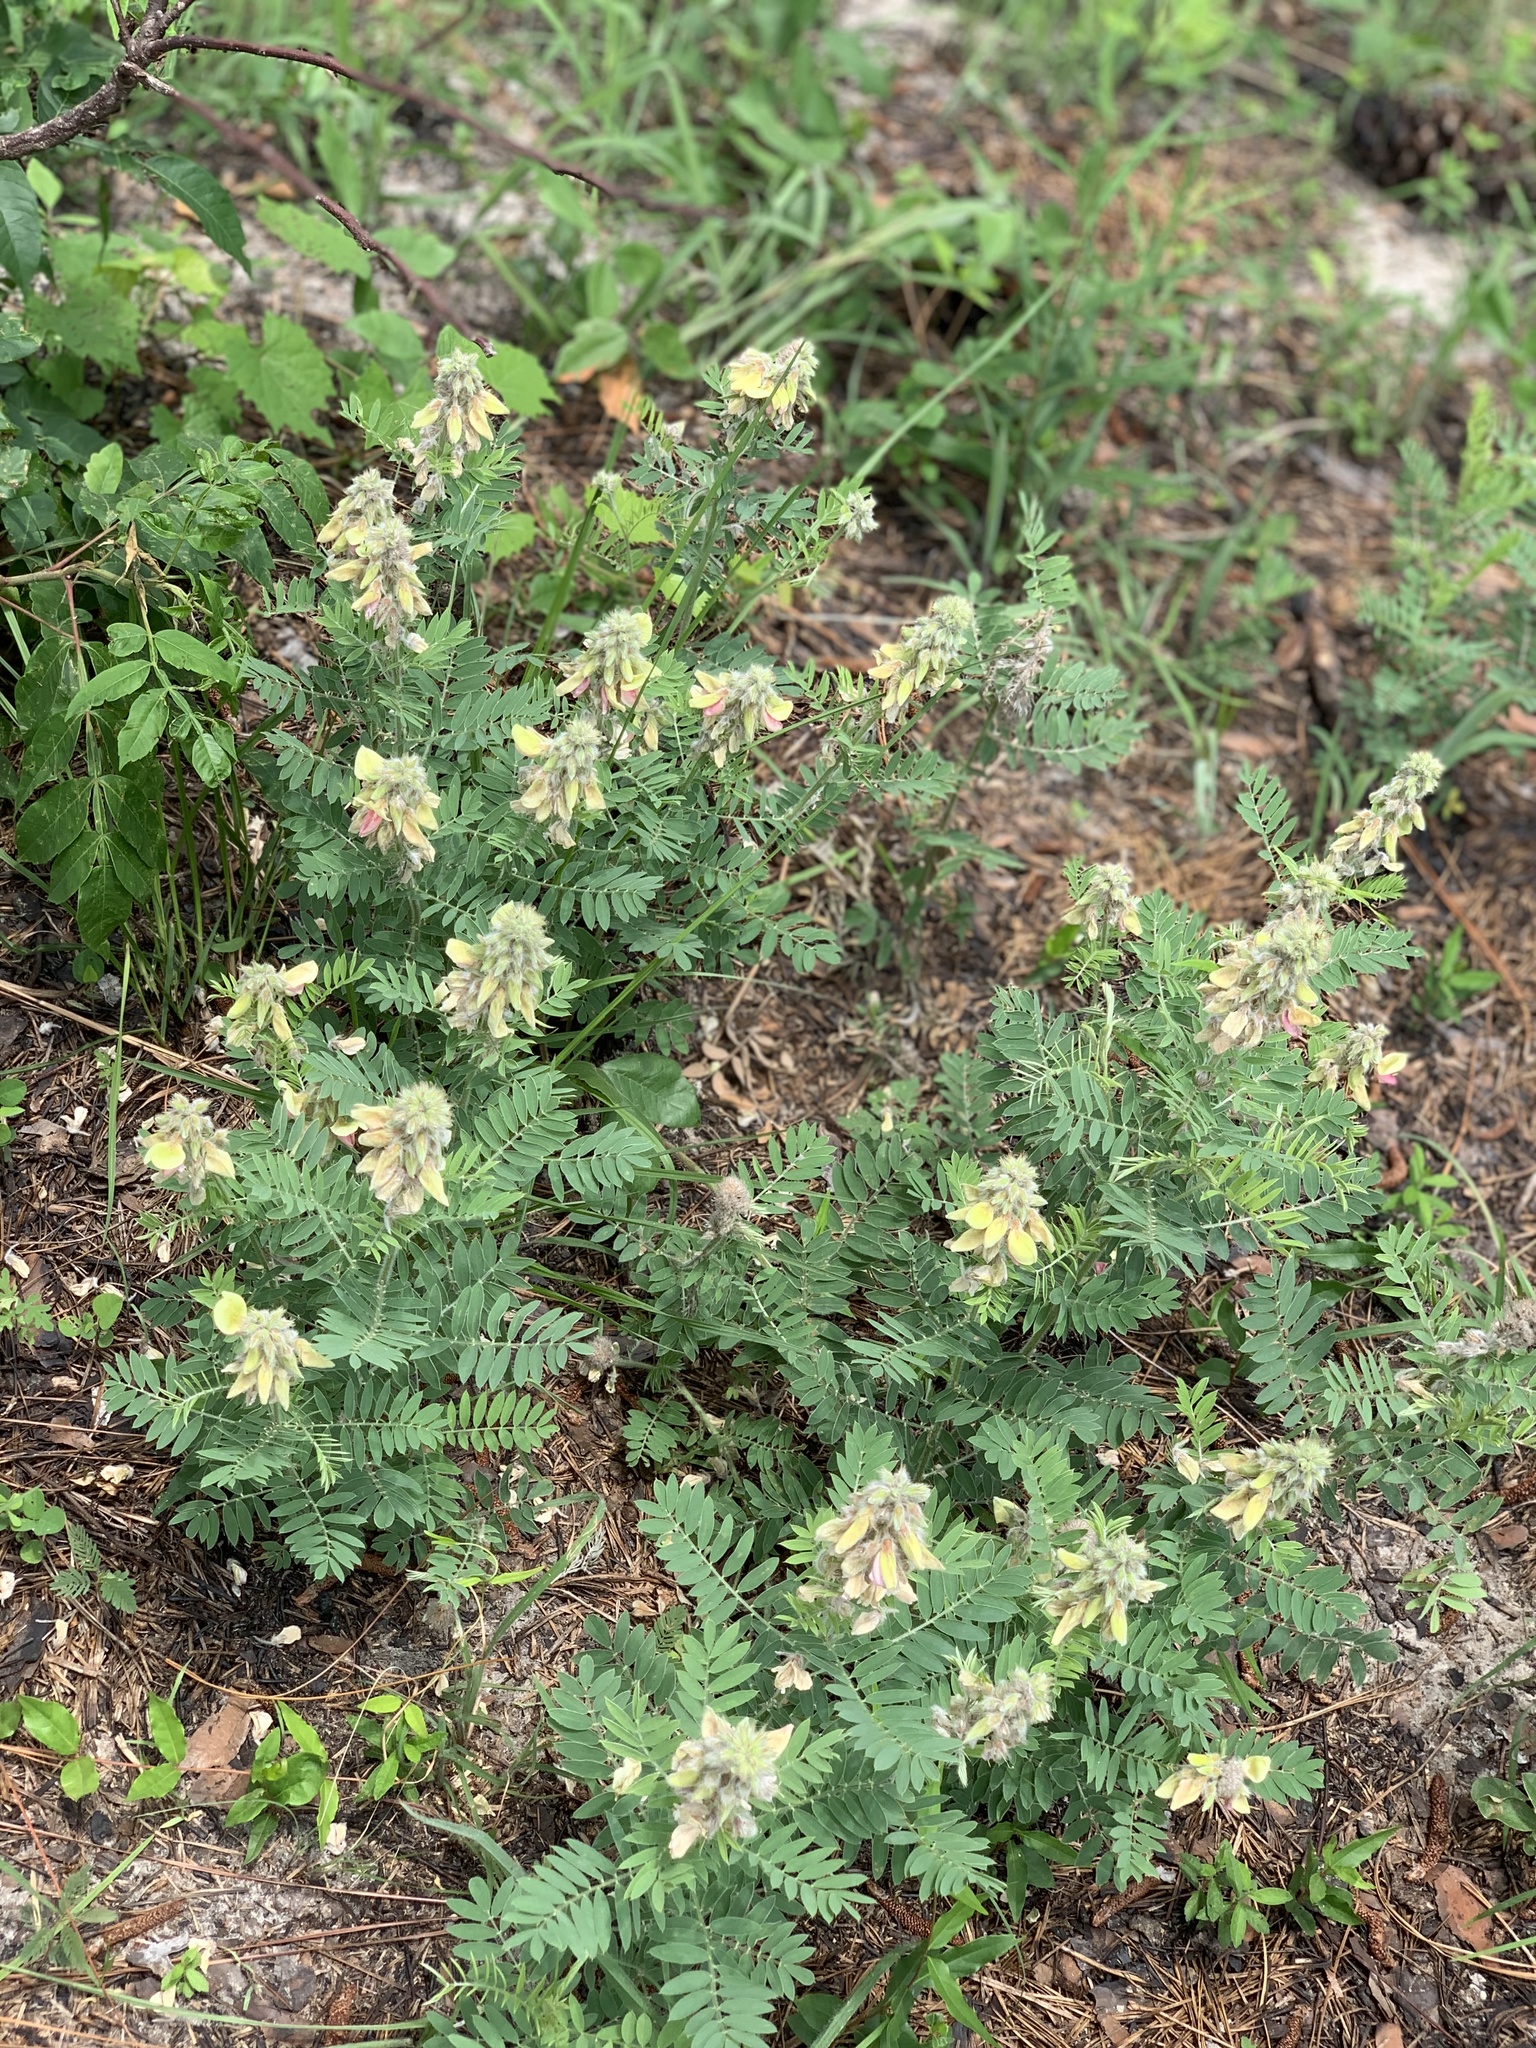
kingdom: Plantae
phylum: Tracheophyta
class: Magnoliopsida
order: Fabales
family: Fabaceae
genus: Tephrosia
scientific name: Tephrosia virginiana
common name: Rabbit-pea
